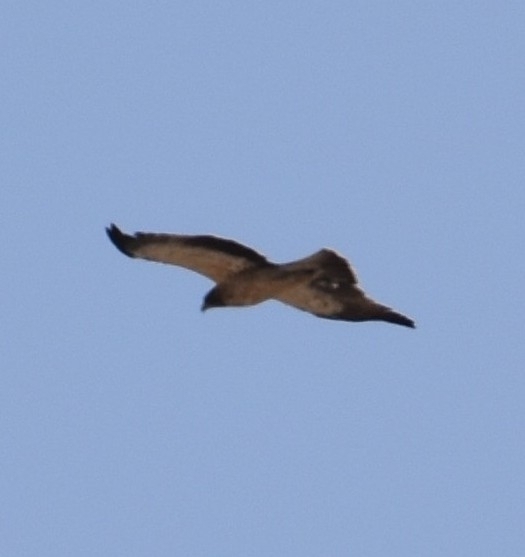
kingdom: Animalia
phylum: Chordata
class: Aves
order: Accipitriformes
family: Accipitridae
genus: Hieraaetus
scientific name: Hieraaetus pennatus
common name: Booted eagle
